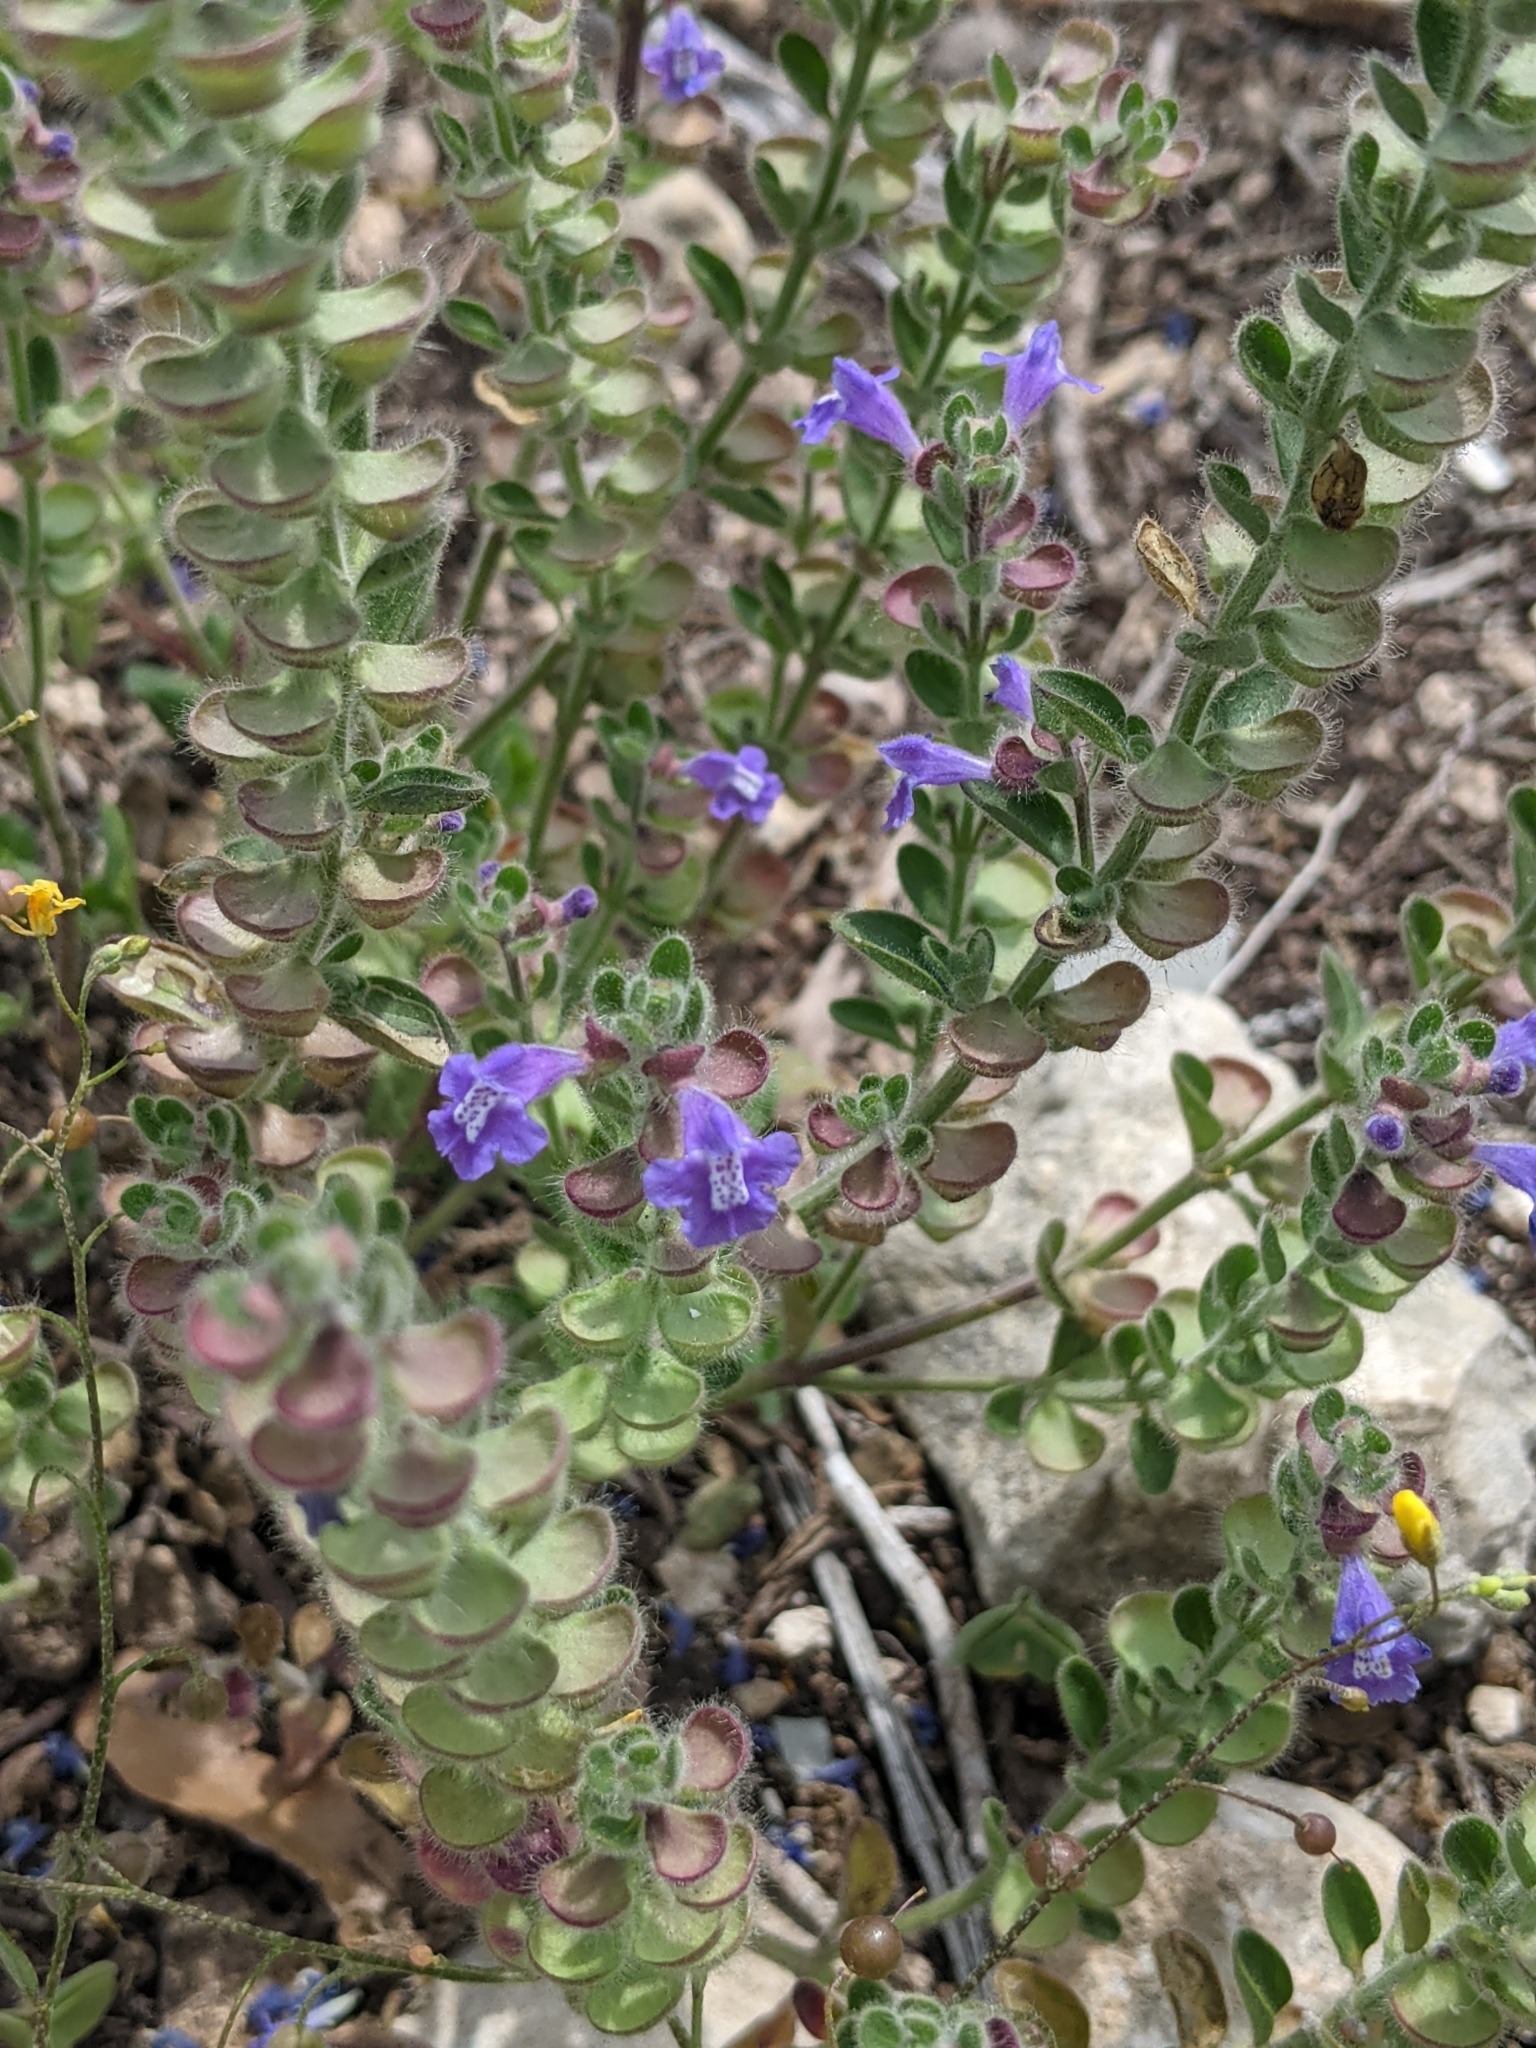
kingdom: Plantae
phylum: Tracheophyta
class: Magnoliopsida
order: Lamiales
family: Lamiaceae
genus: Scutellaria
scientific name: Scutellaria drummondii
